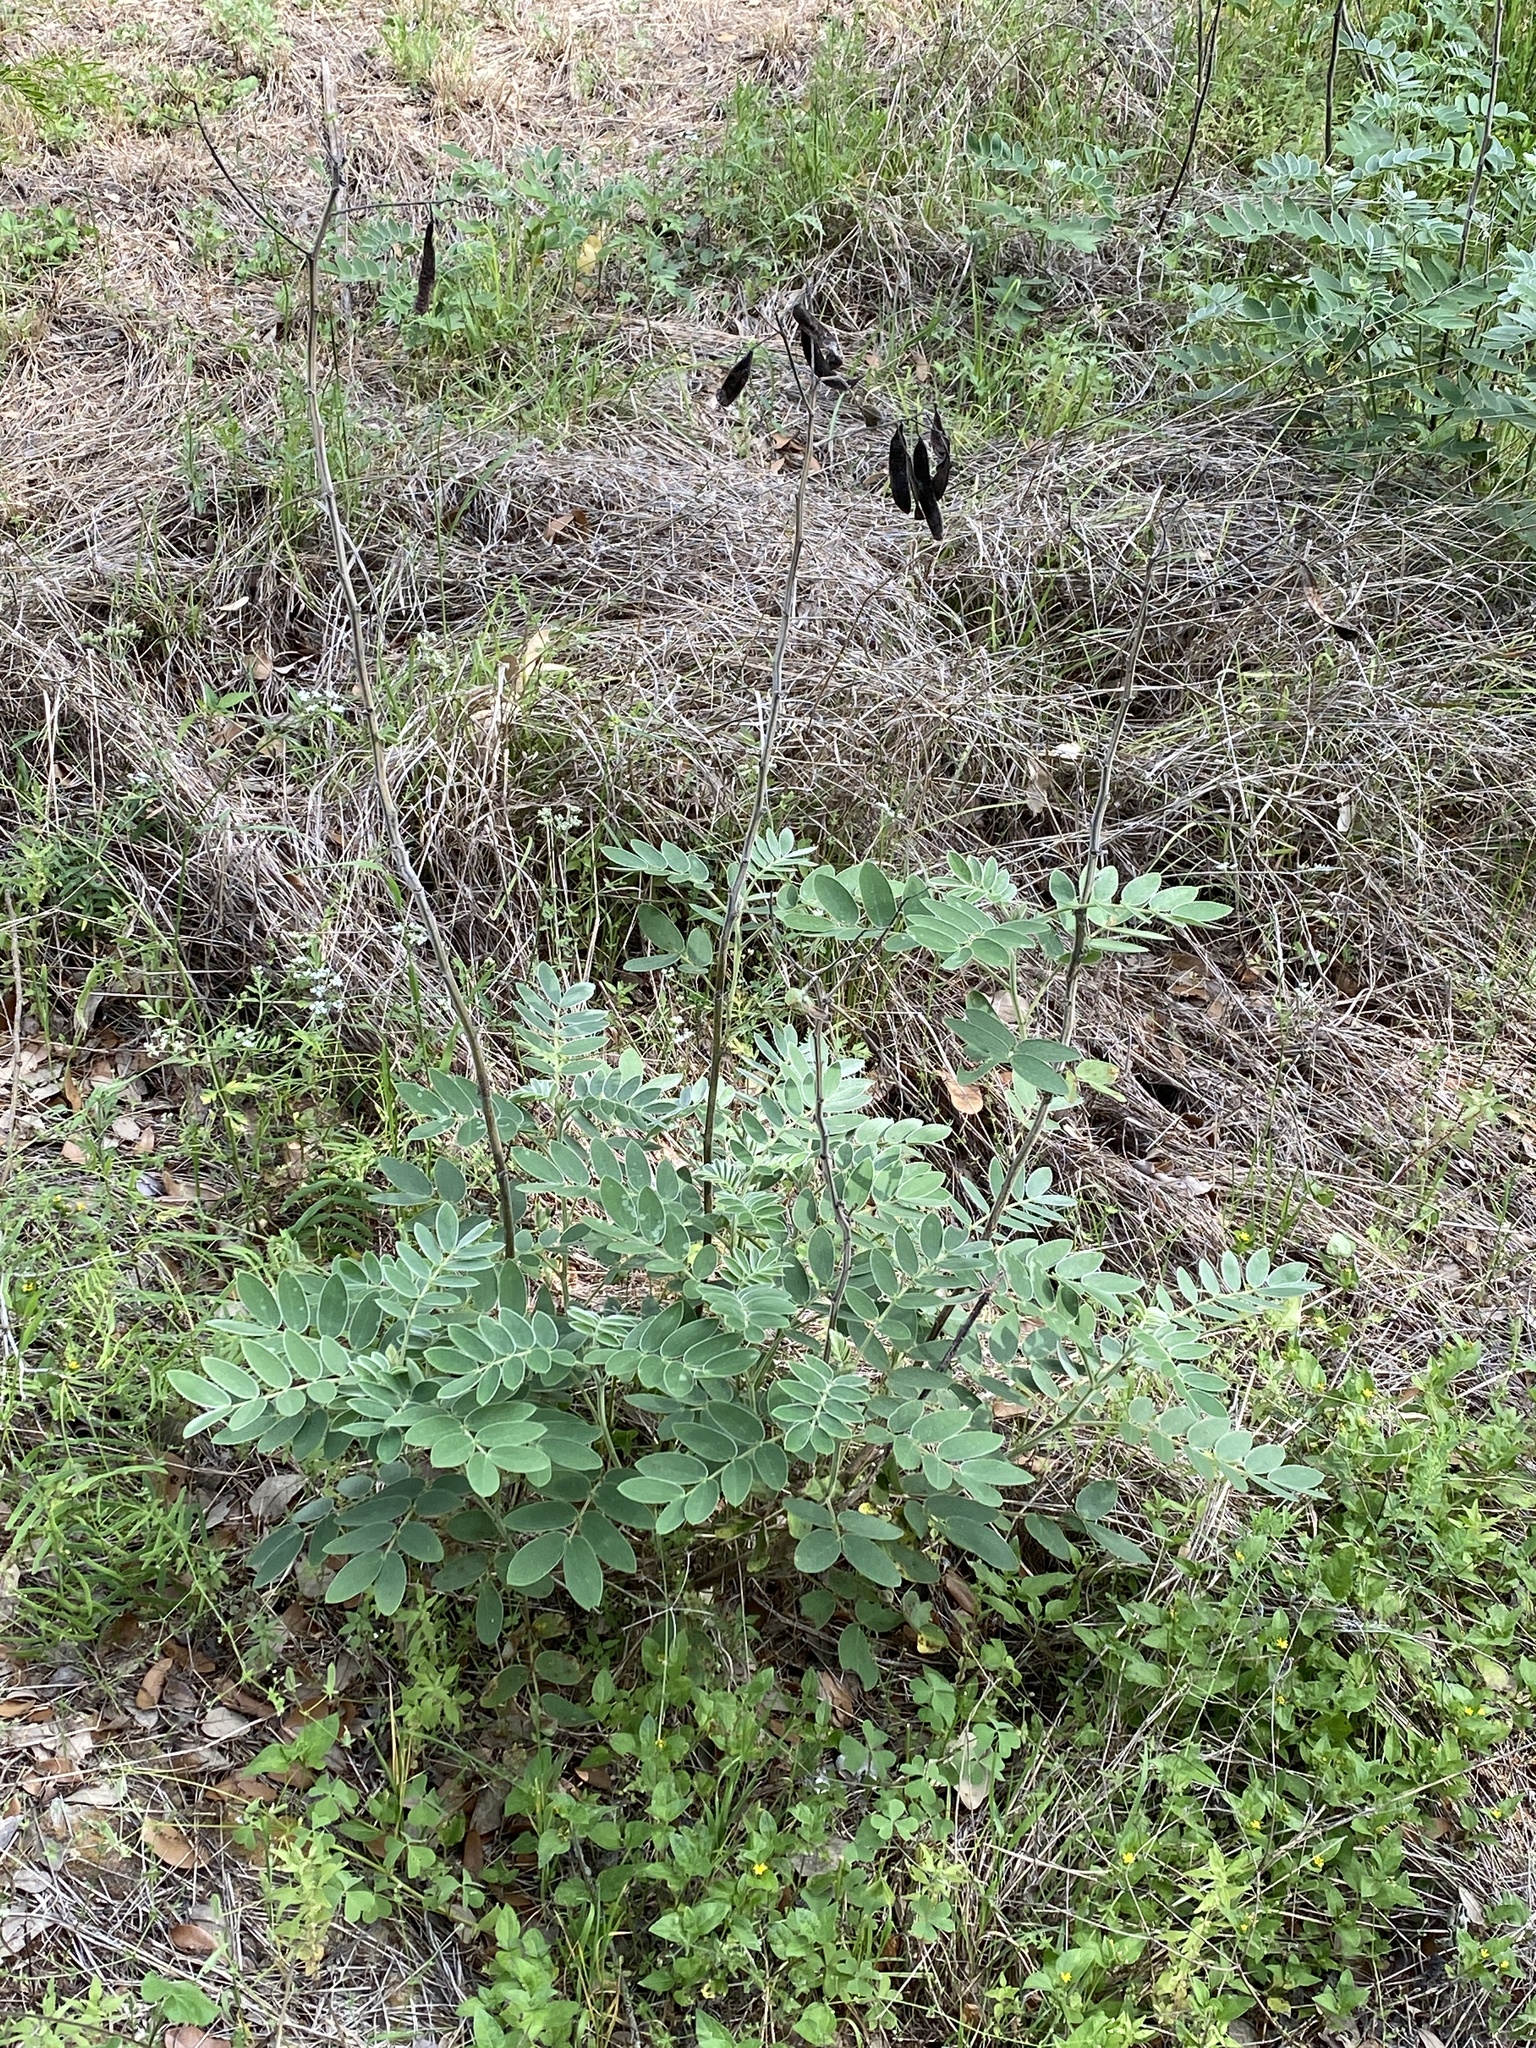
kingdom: Plantae
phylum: Tracheophyta
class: Magnoliopsida
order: Fabales
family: Fabaceae
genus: Senna
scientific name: Senna lindheimeriana
